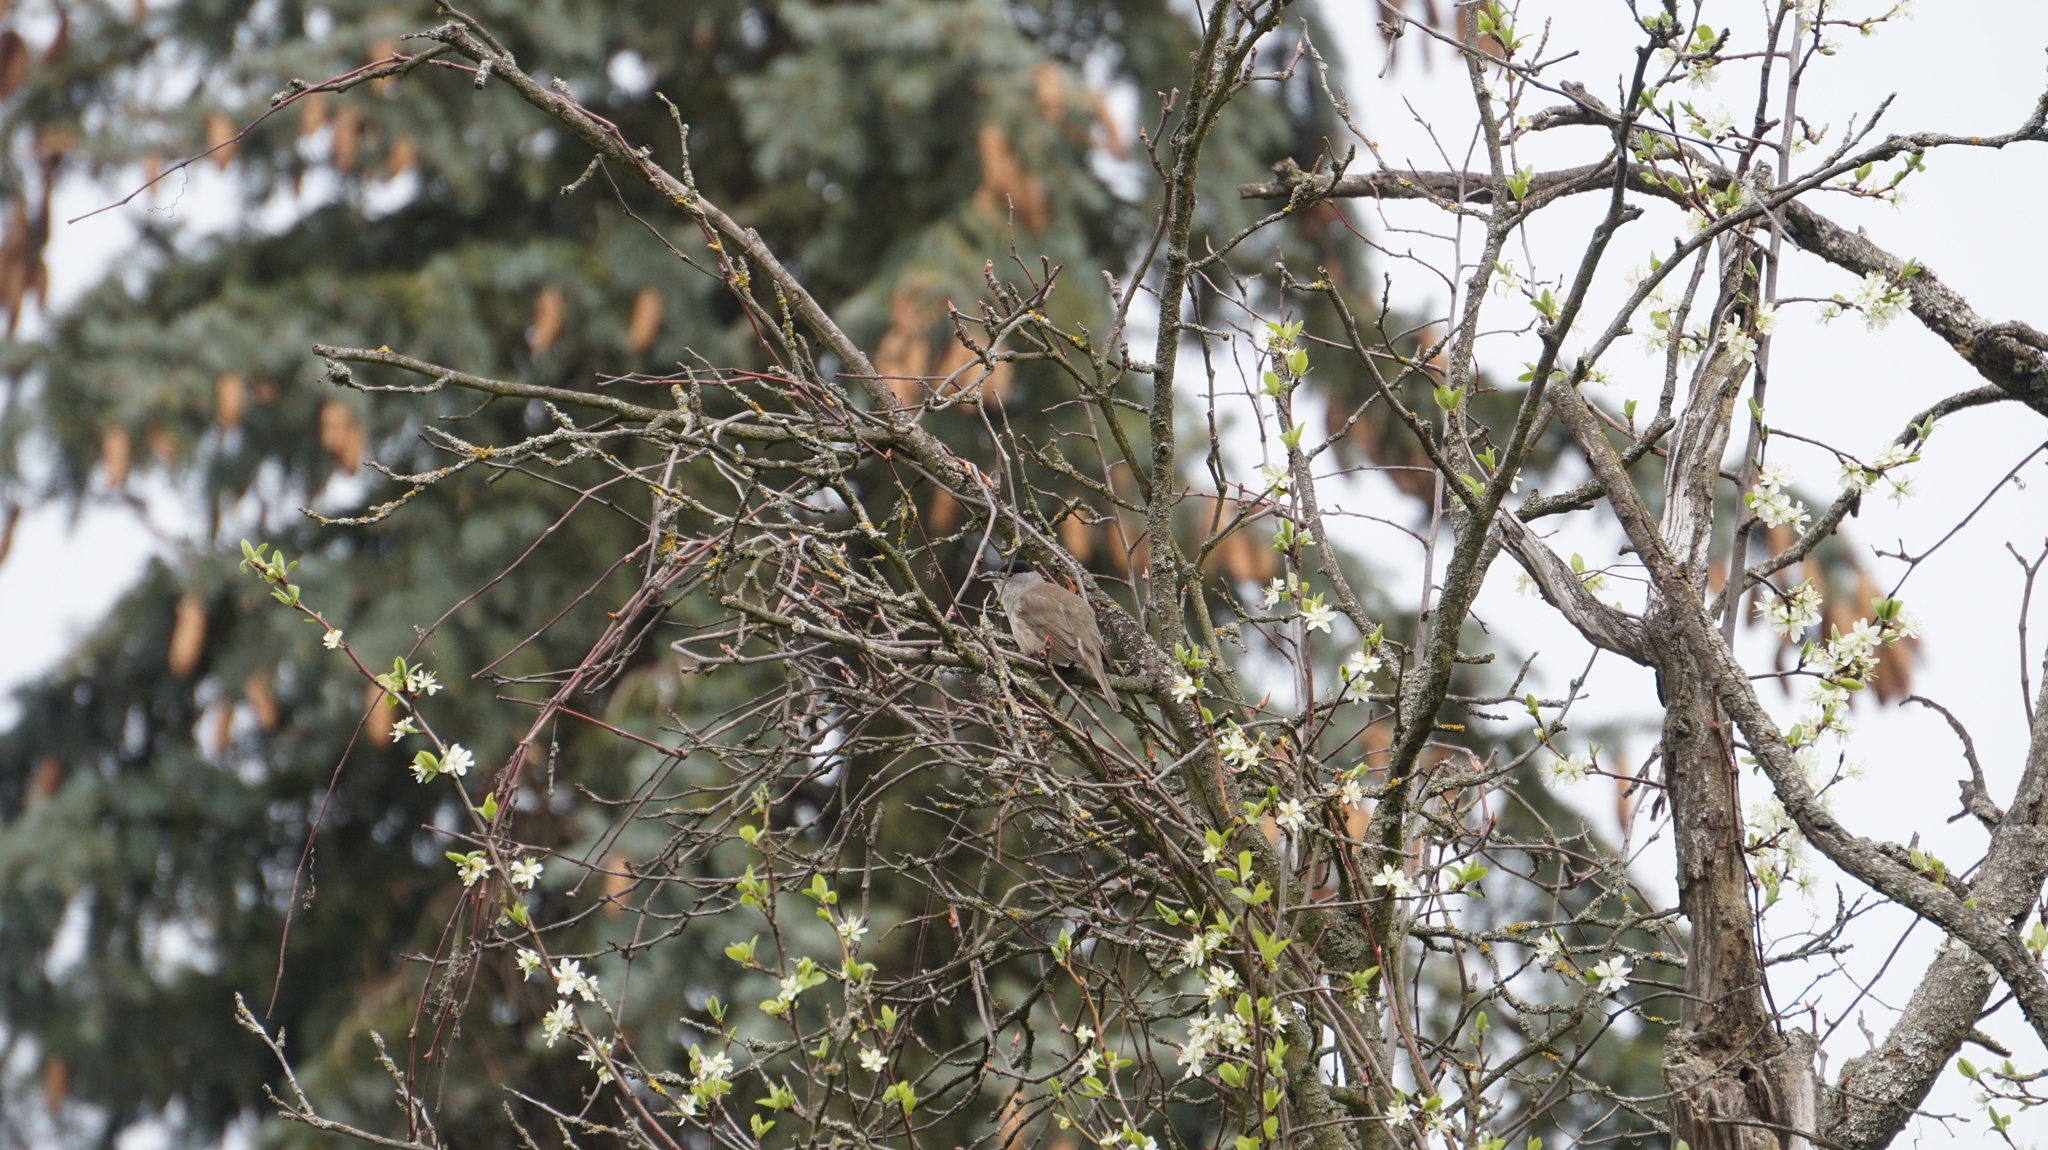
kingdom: Animalia
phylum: Chordata
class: Aves
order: Passeriformes
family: Sylviidae
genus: Sylvia
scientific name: Sylvia atricapilla
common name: Eurasian blackcap
